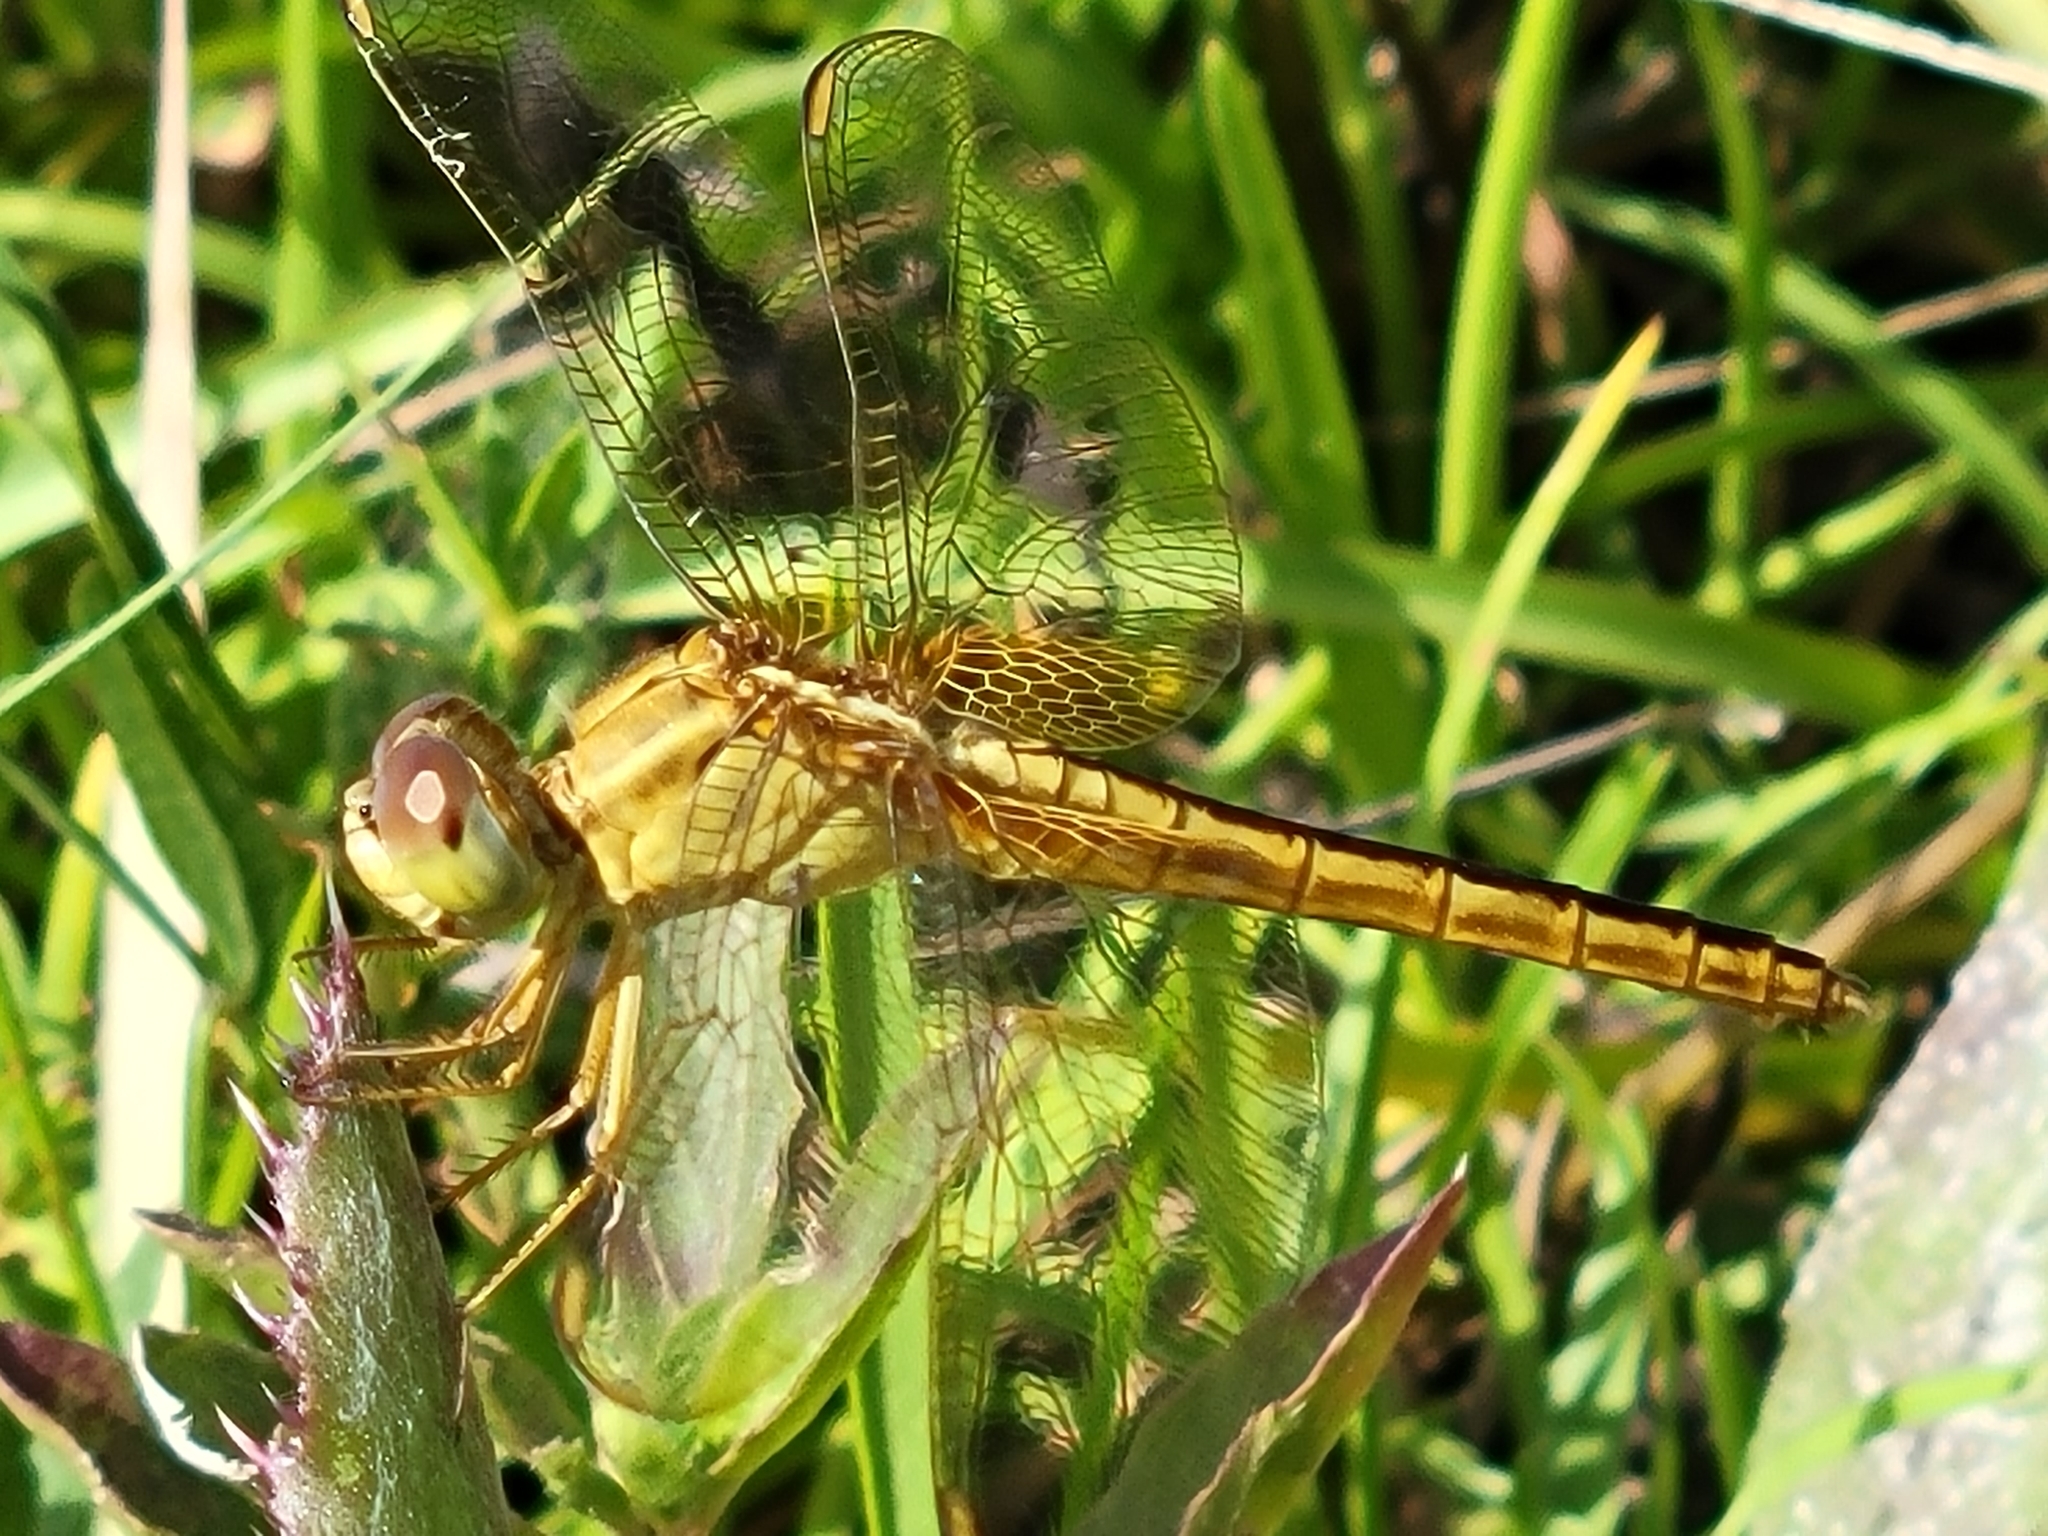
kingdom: Animalia
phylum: Arthropoda
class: Insecta
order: Odonata
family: Libellulidae
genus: Crocothemis
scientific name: Crocothemis servilia
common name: Scarlet skimmer
